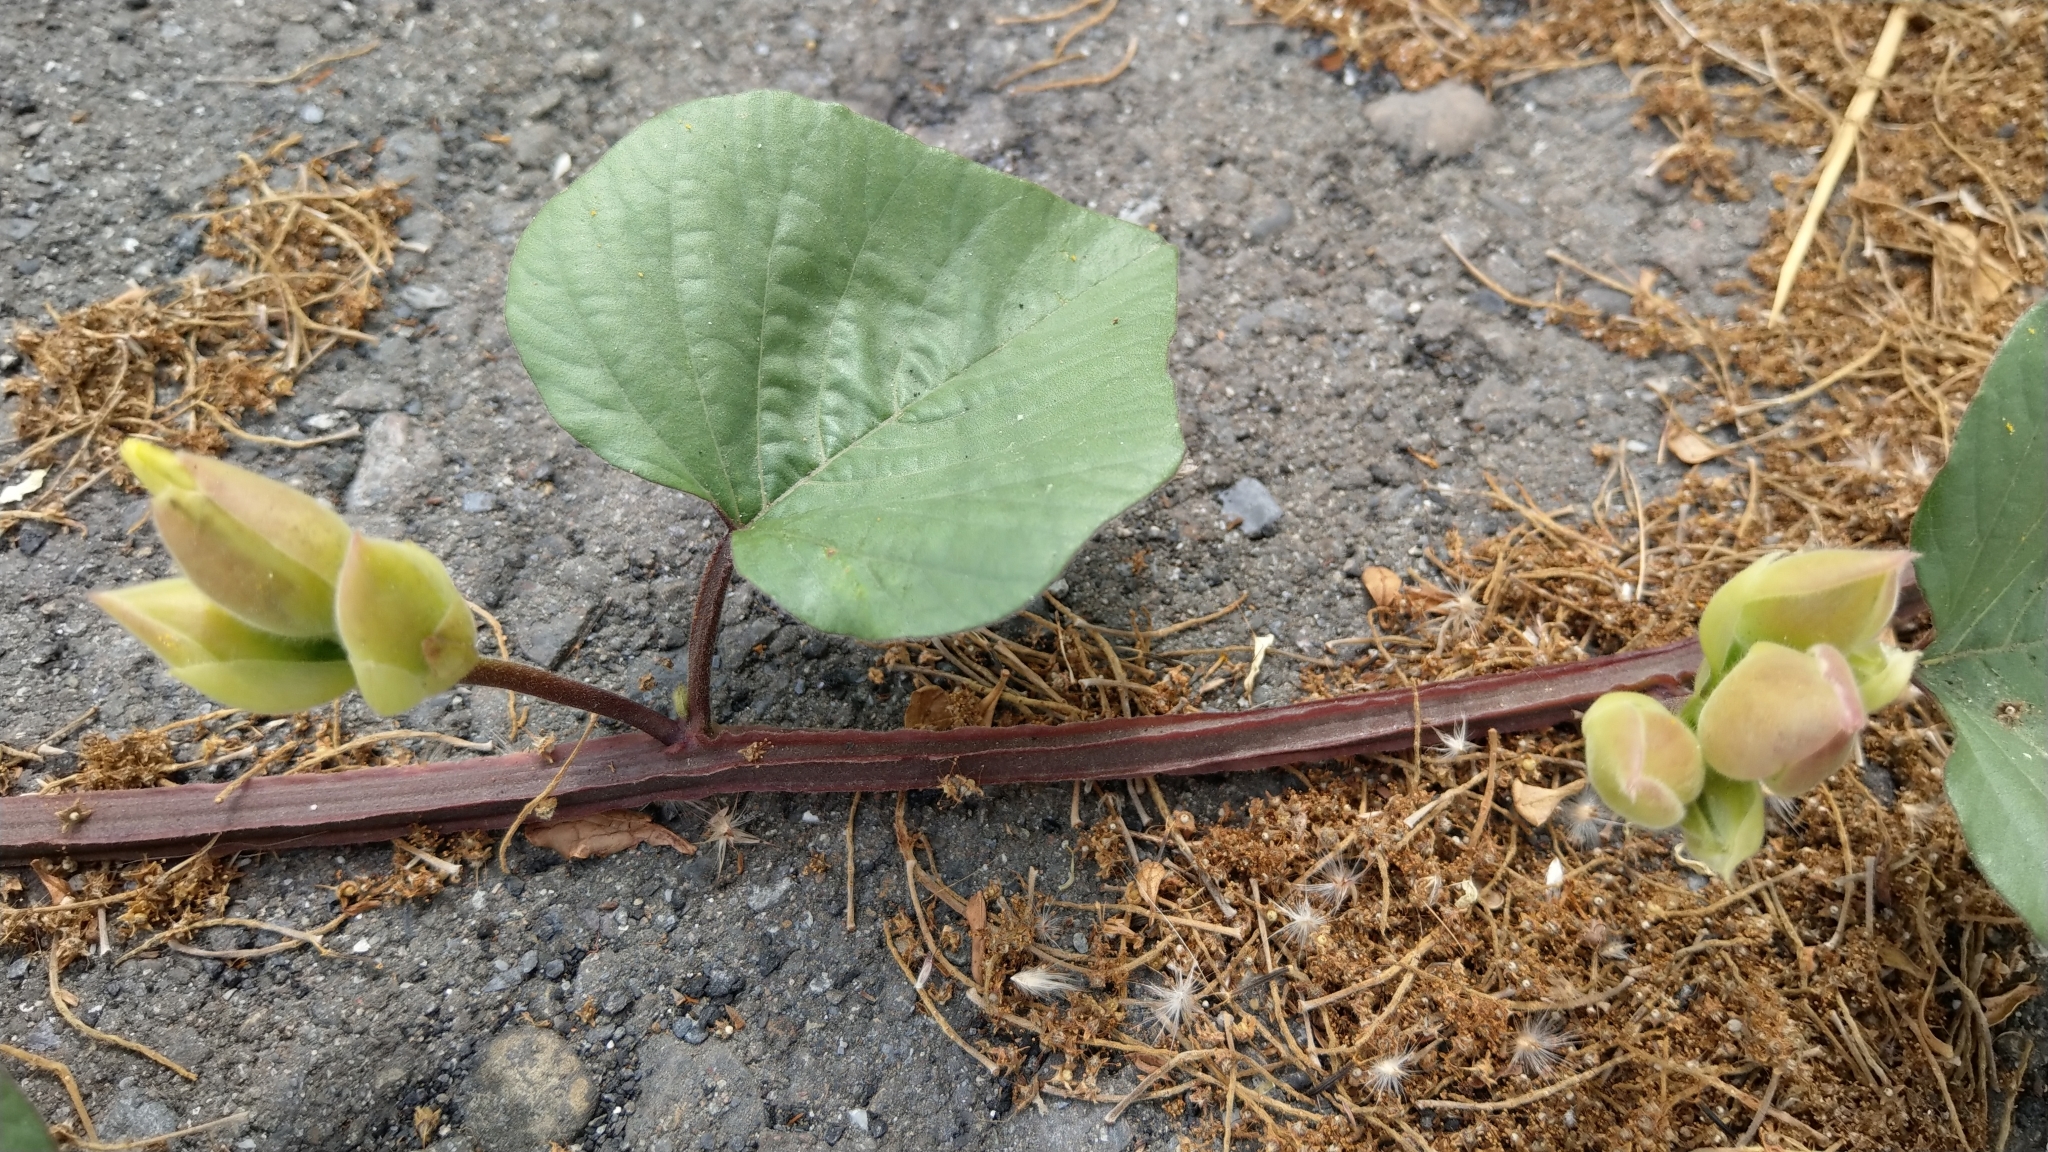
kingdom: Plantae
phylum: Tracheophyta
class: Magnoliopsida
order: Solanales
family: Convolvulaceae
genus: Operculina
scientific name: Operculina turpethum
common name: Transparent wood-rose
